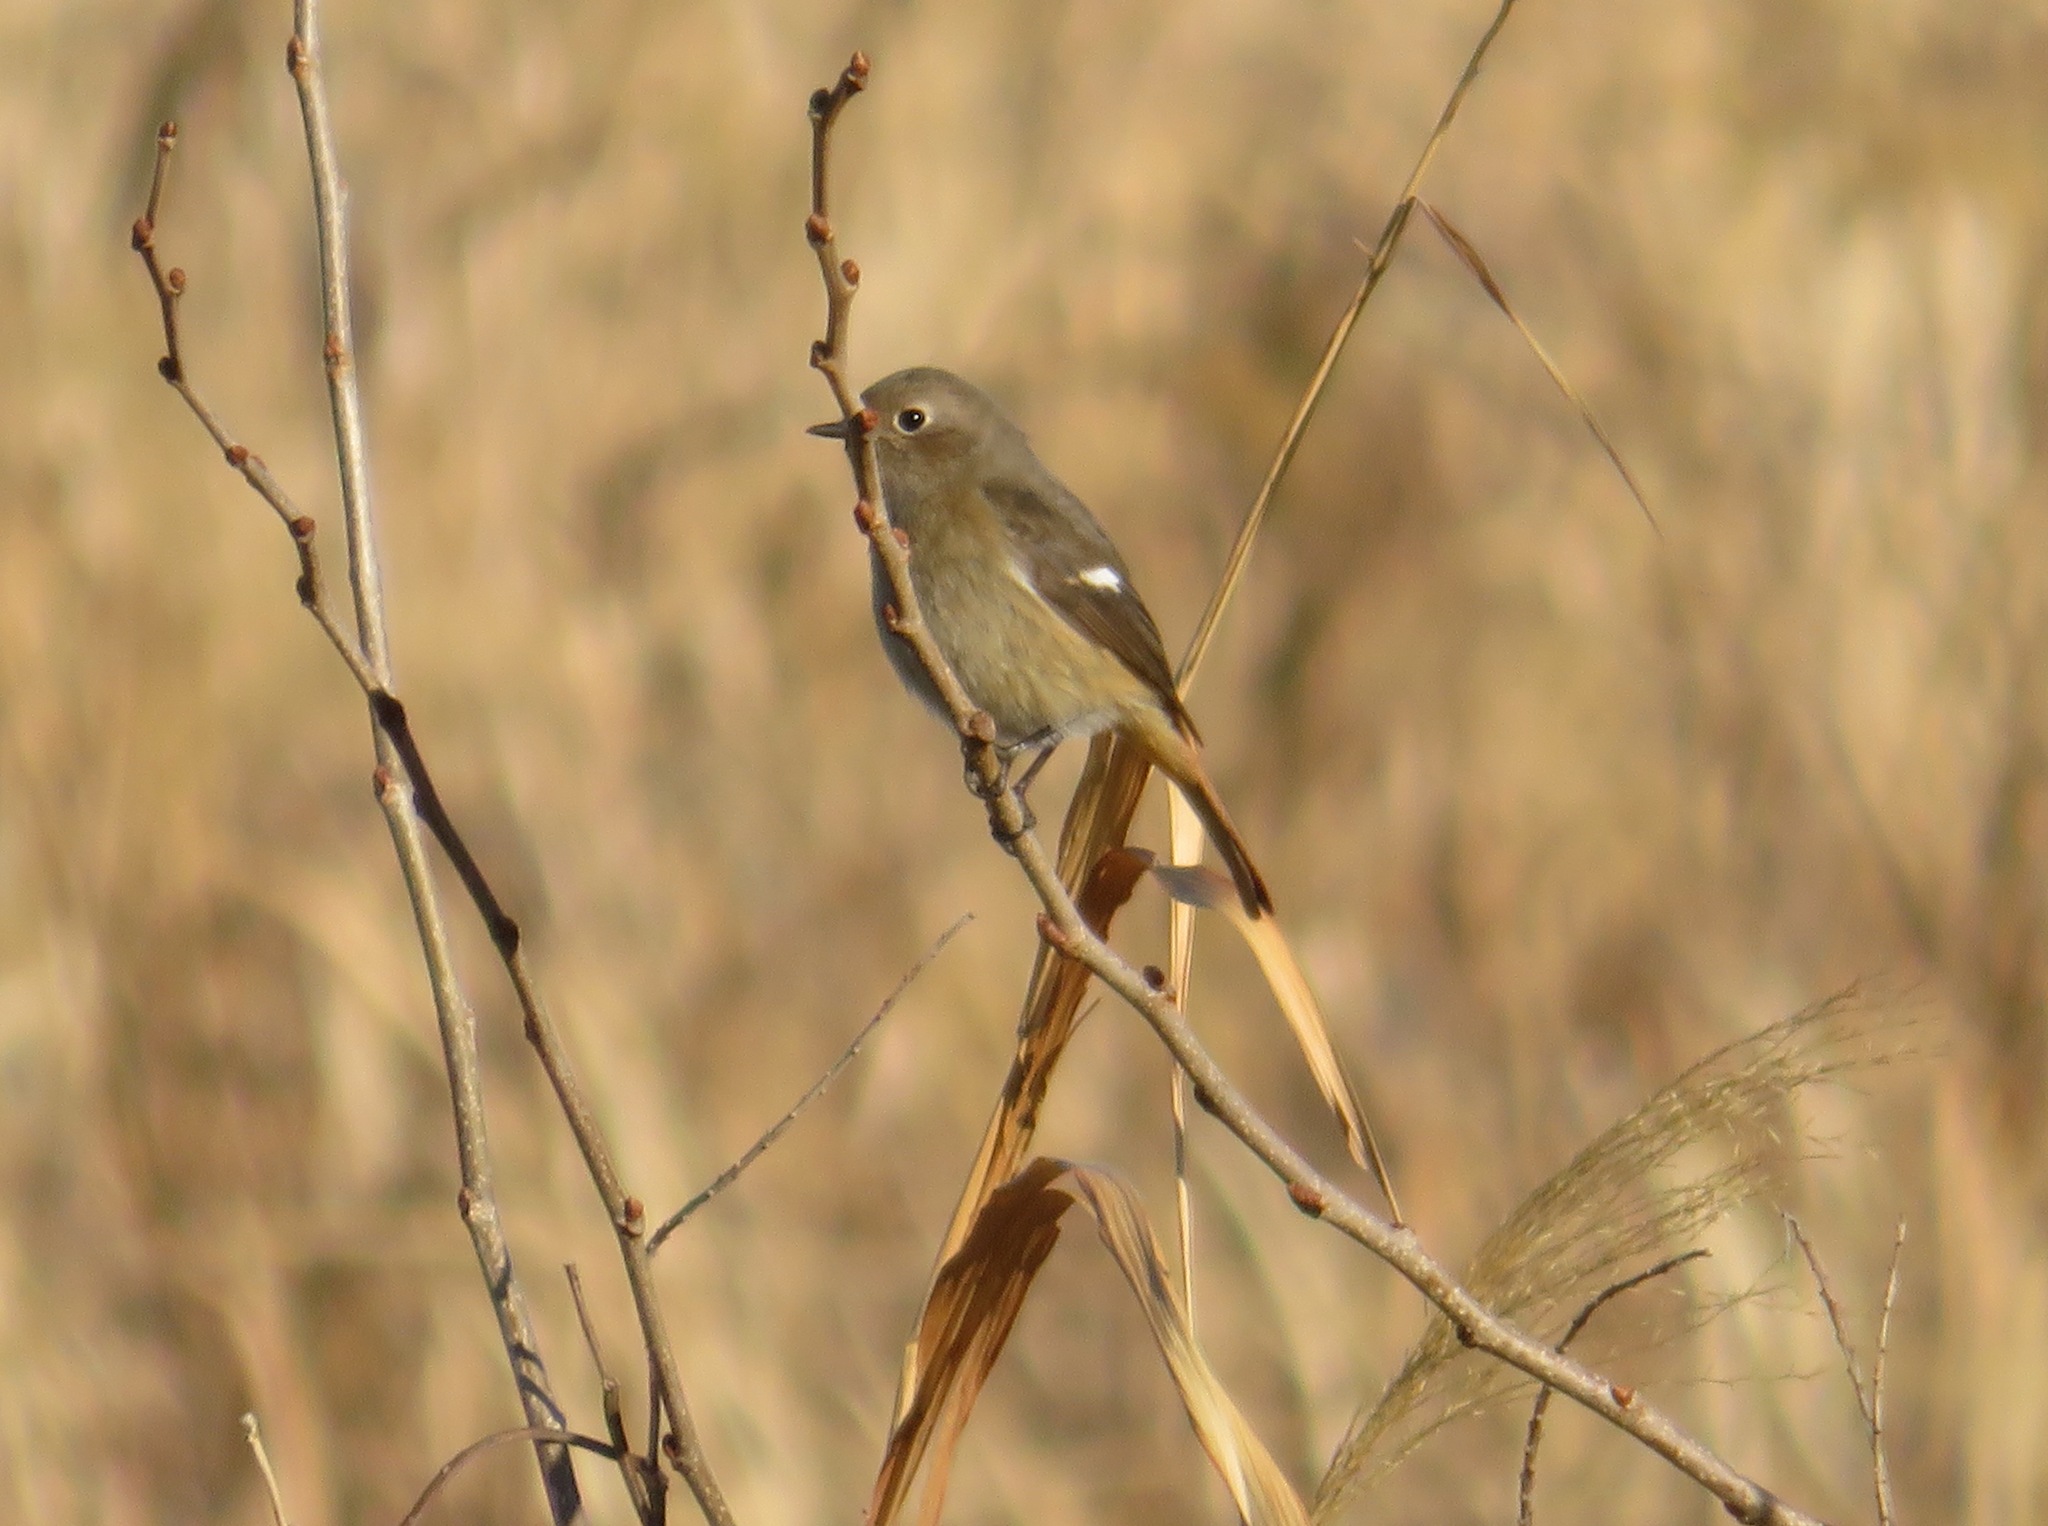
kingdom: Animalia
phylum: Chordata
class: Aves
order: Passeriformes
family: Muscicapidae
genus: Phoenicurus
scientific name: Phoenicurus auroreus
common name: Daurian redstart
